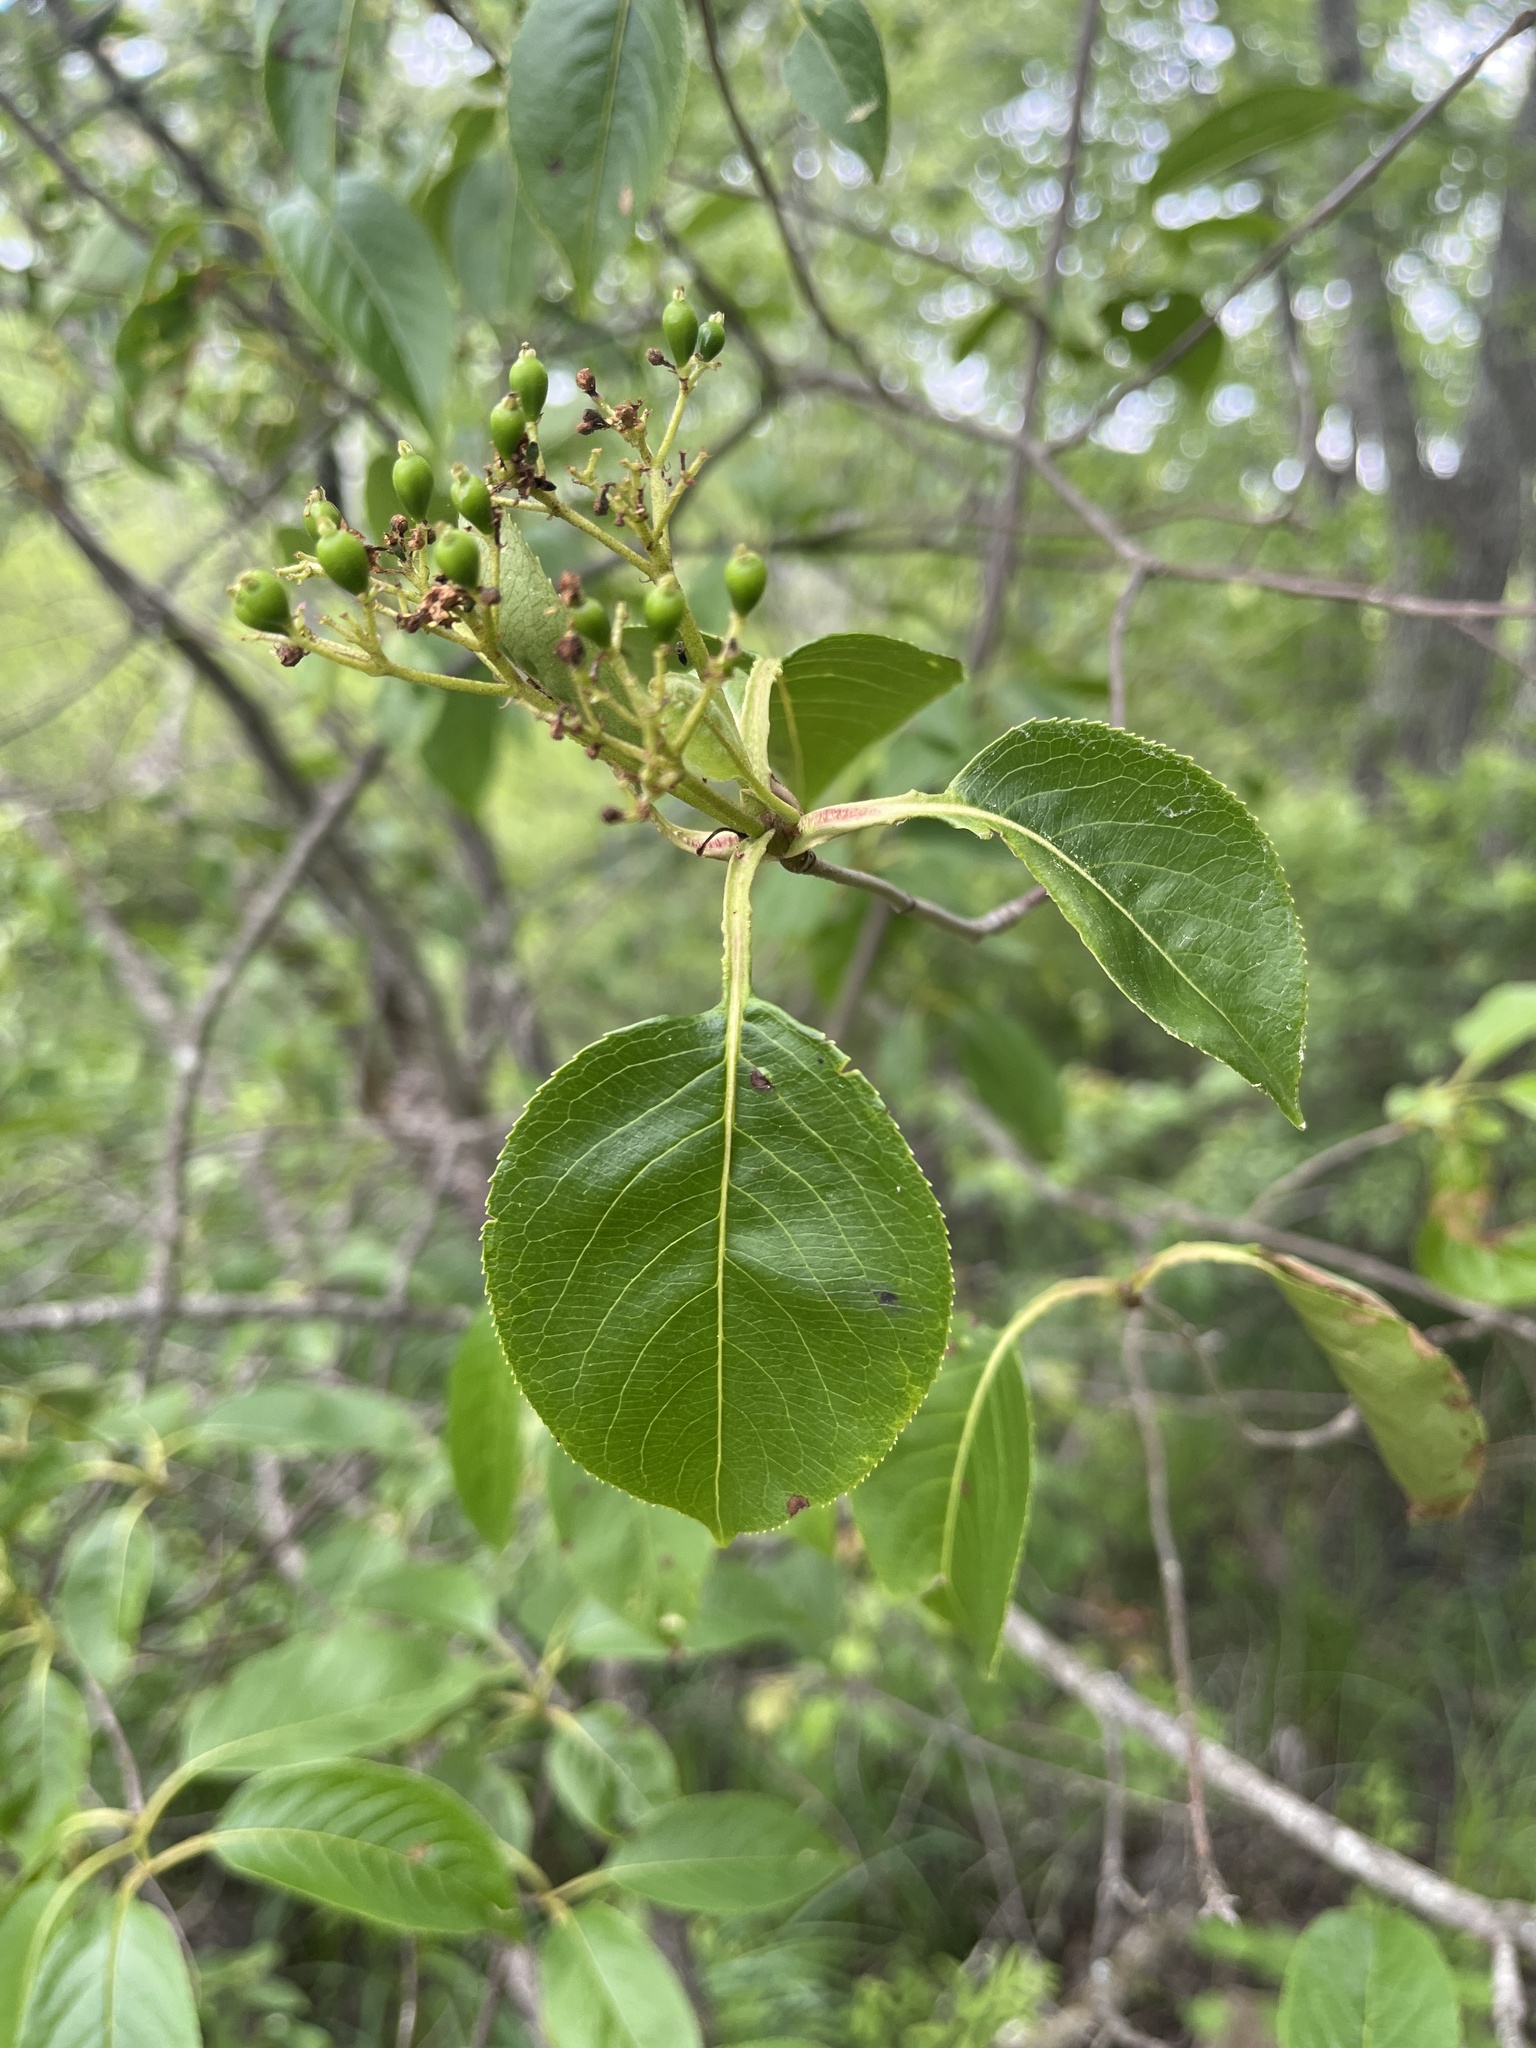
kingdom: Plantae
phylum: Tracheophyta
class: Magnoliopsida
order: Dipsacales
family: Viburnaceae
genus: Viburnum
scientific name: Viburnum lentago
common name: Black haw
